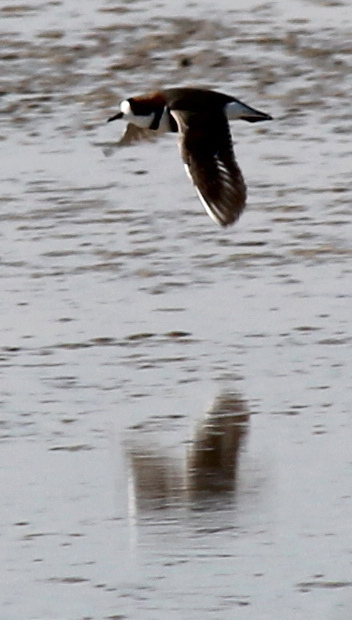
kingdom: Animalia
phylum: Chordata
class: Aves
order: Charadriiformes
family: Charadriidae
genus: Anarhynchus
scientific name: Anarhynchus
